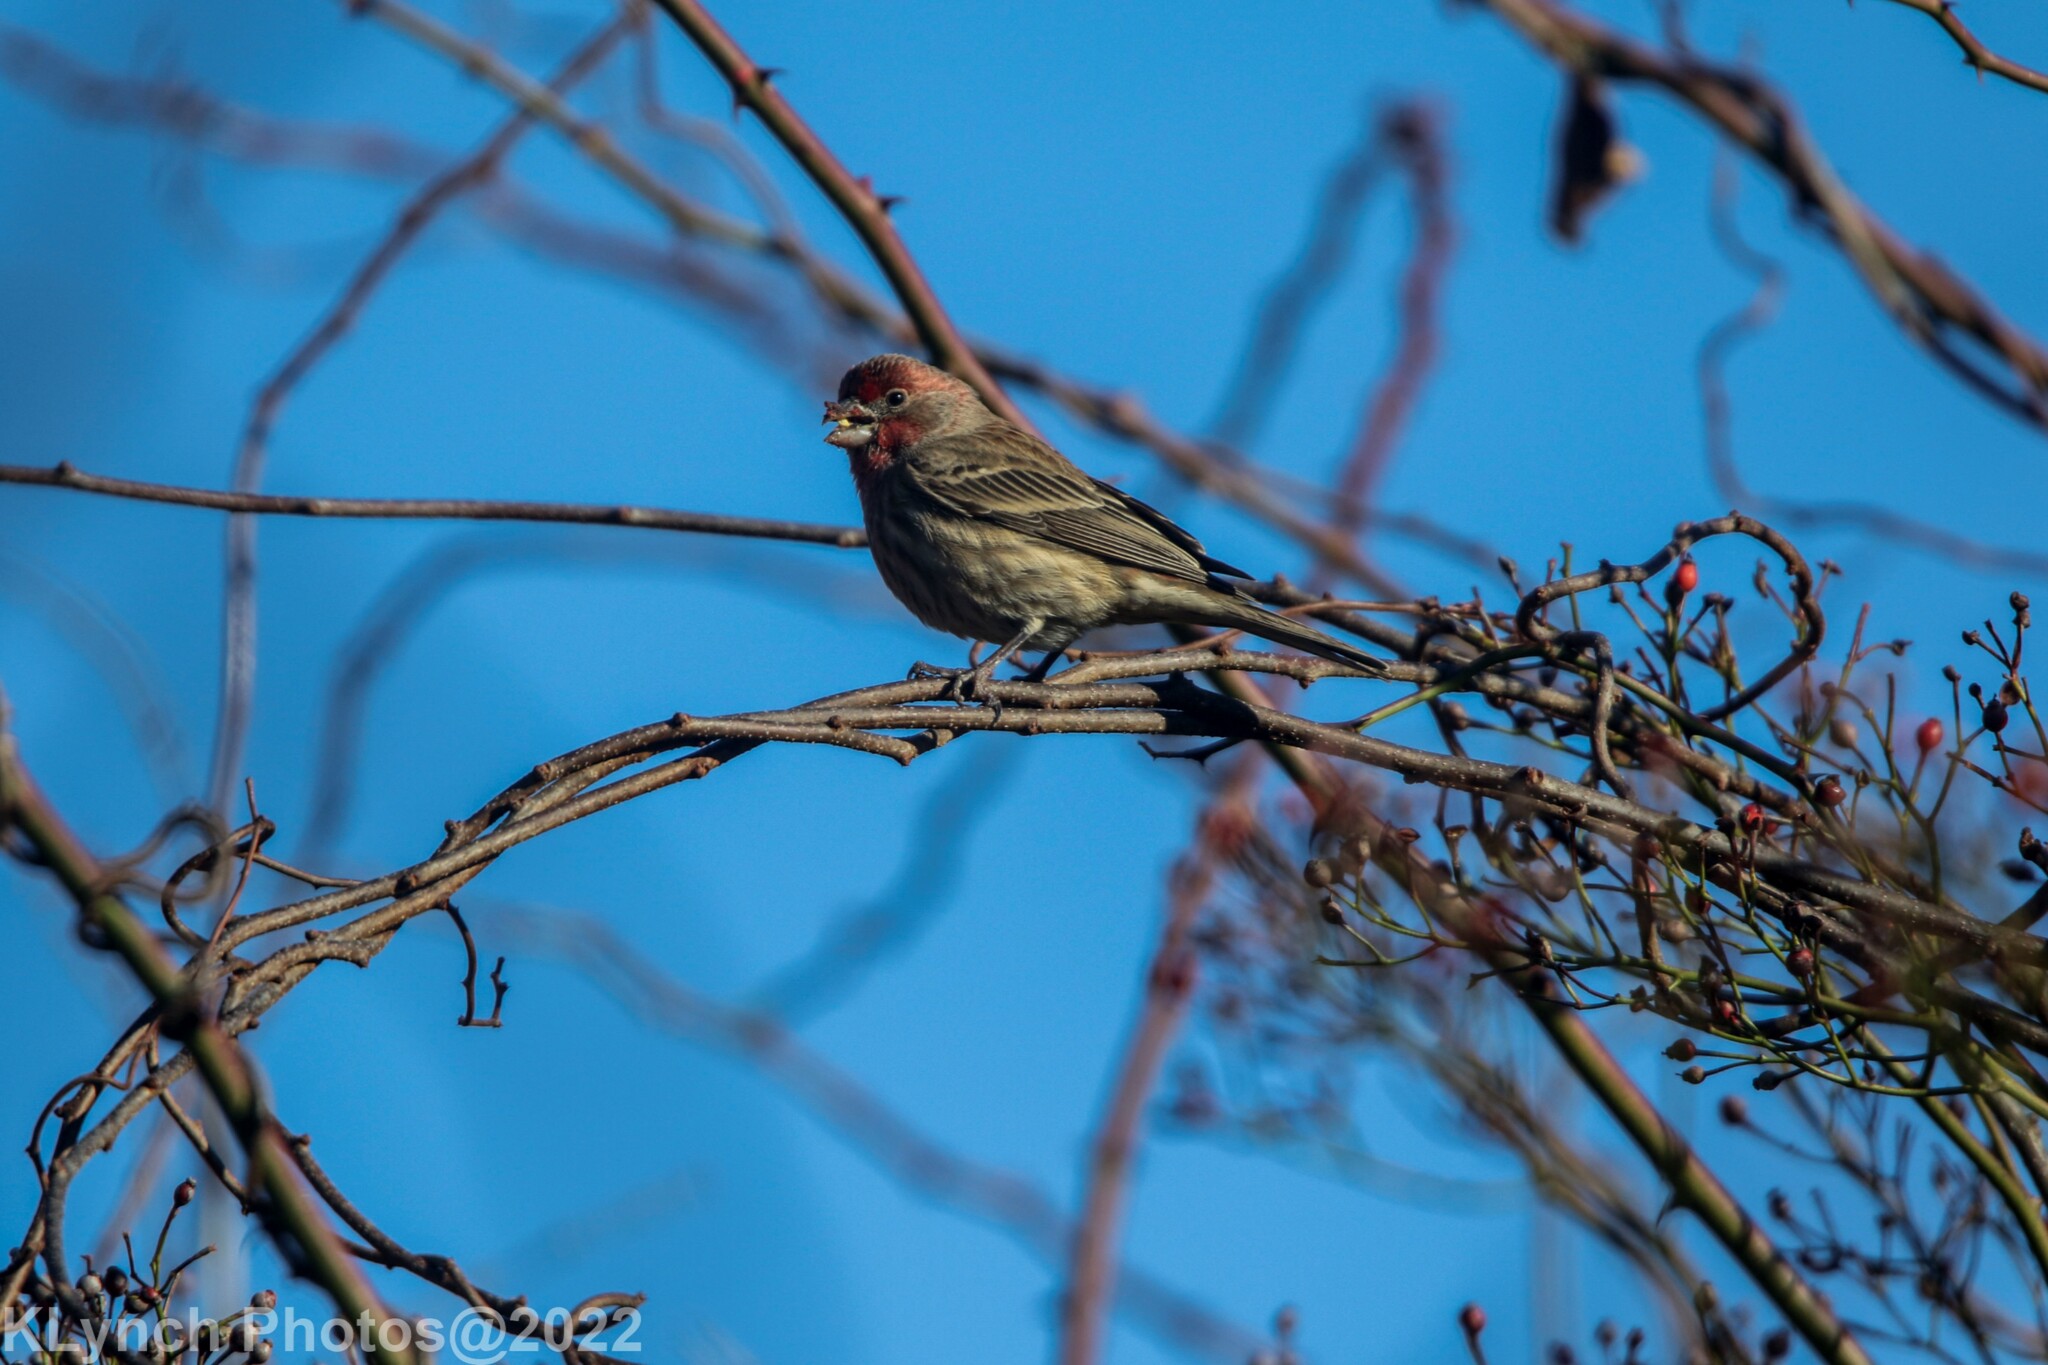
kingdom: Animalia
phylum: Chordata
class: Aves
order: Passeriformes
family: Fringillidae
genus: Haemorhous
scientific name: Haemorhous mexicanus
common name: House finch
